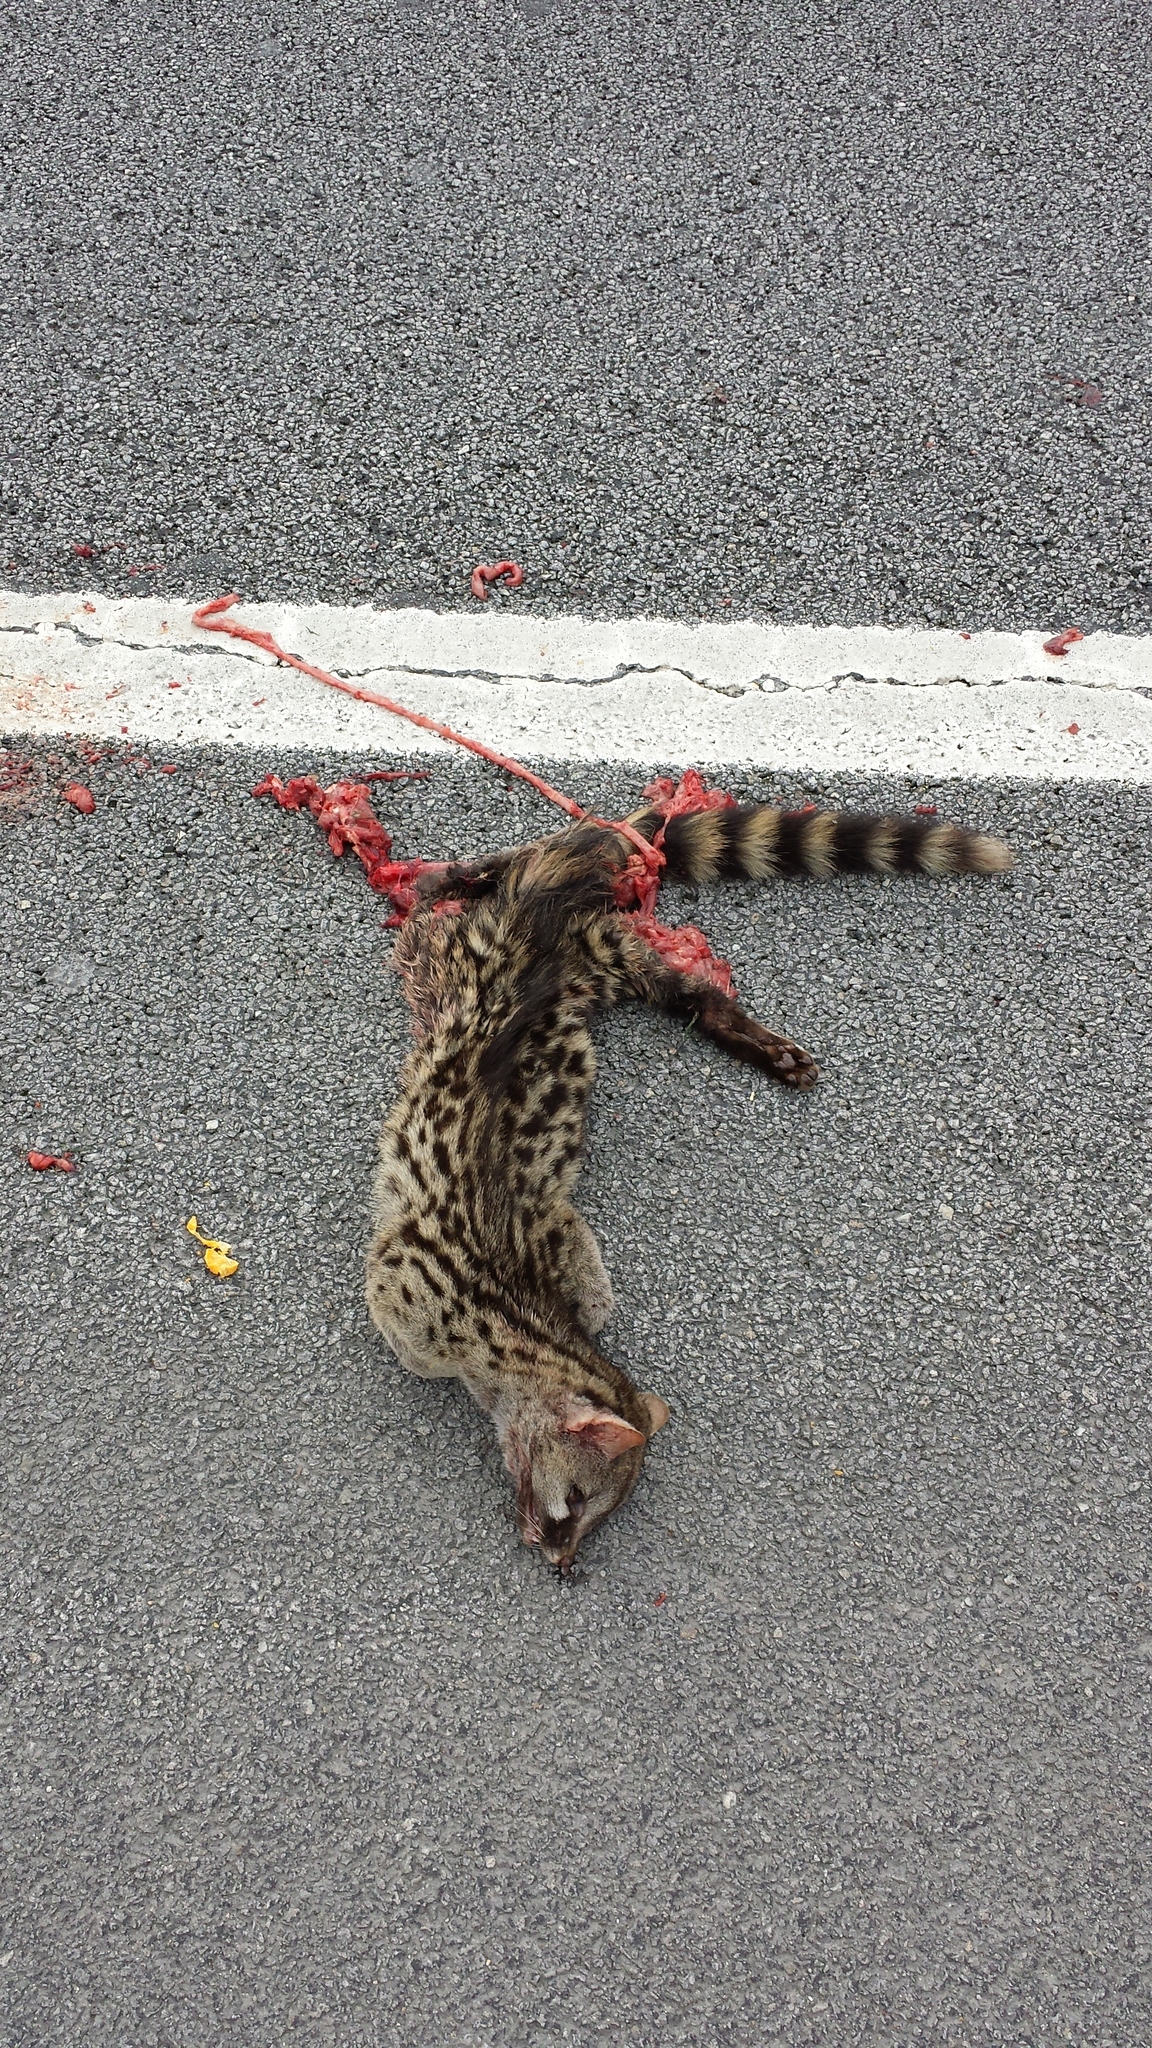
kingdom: Animalia
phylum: Chordata
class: Mammalia
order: Carnivora
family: Viverridae
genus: Genetta
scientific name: Genetta genetta
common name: Common genet
